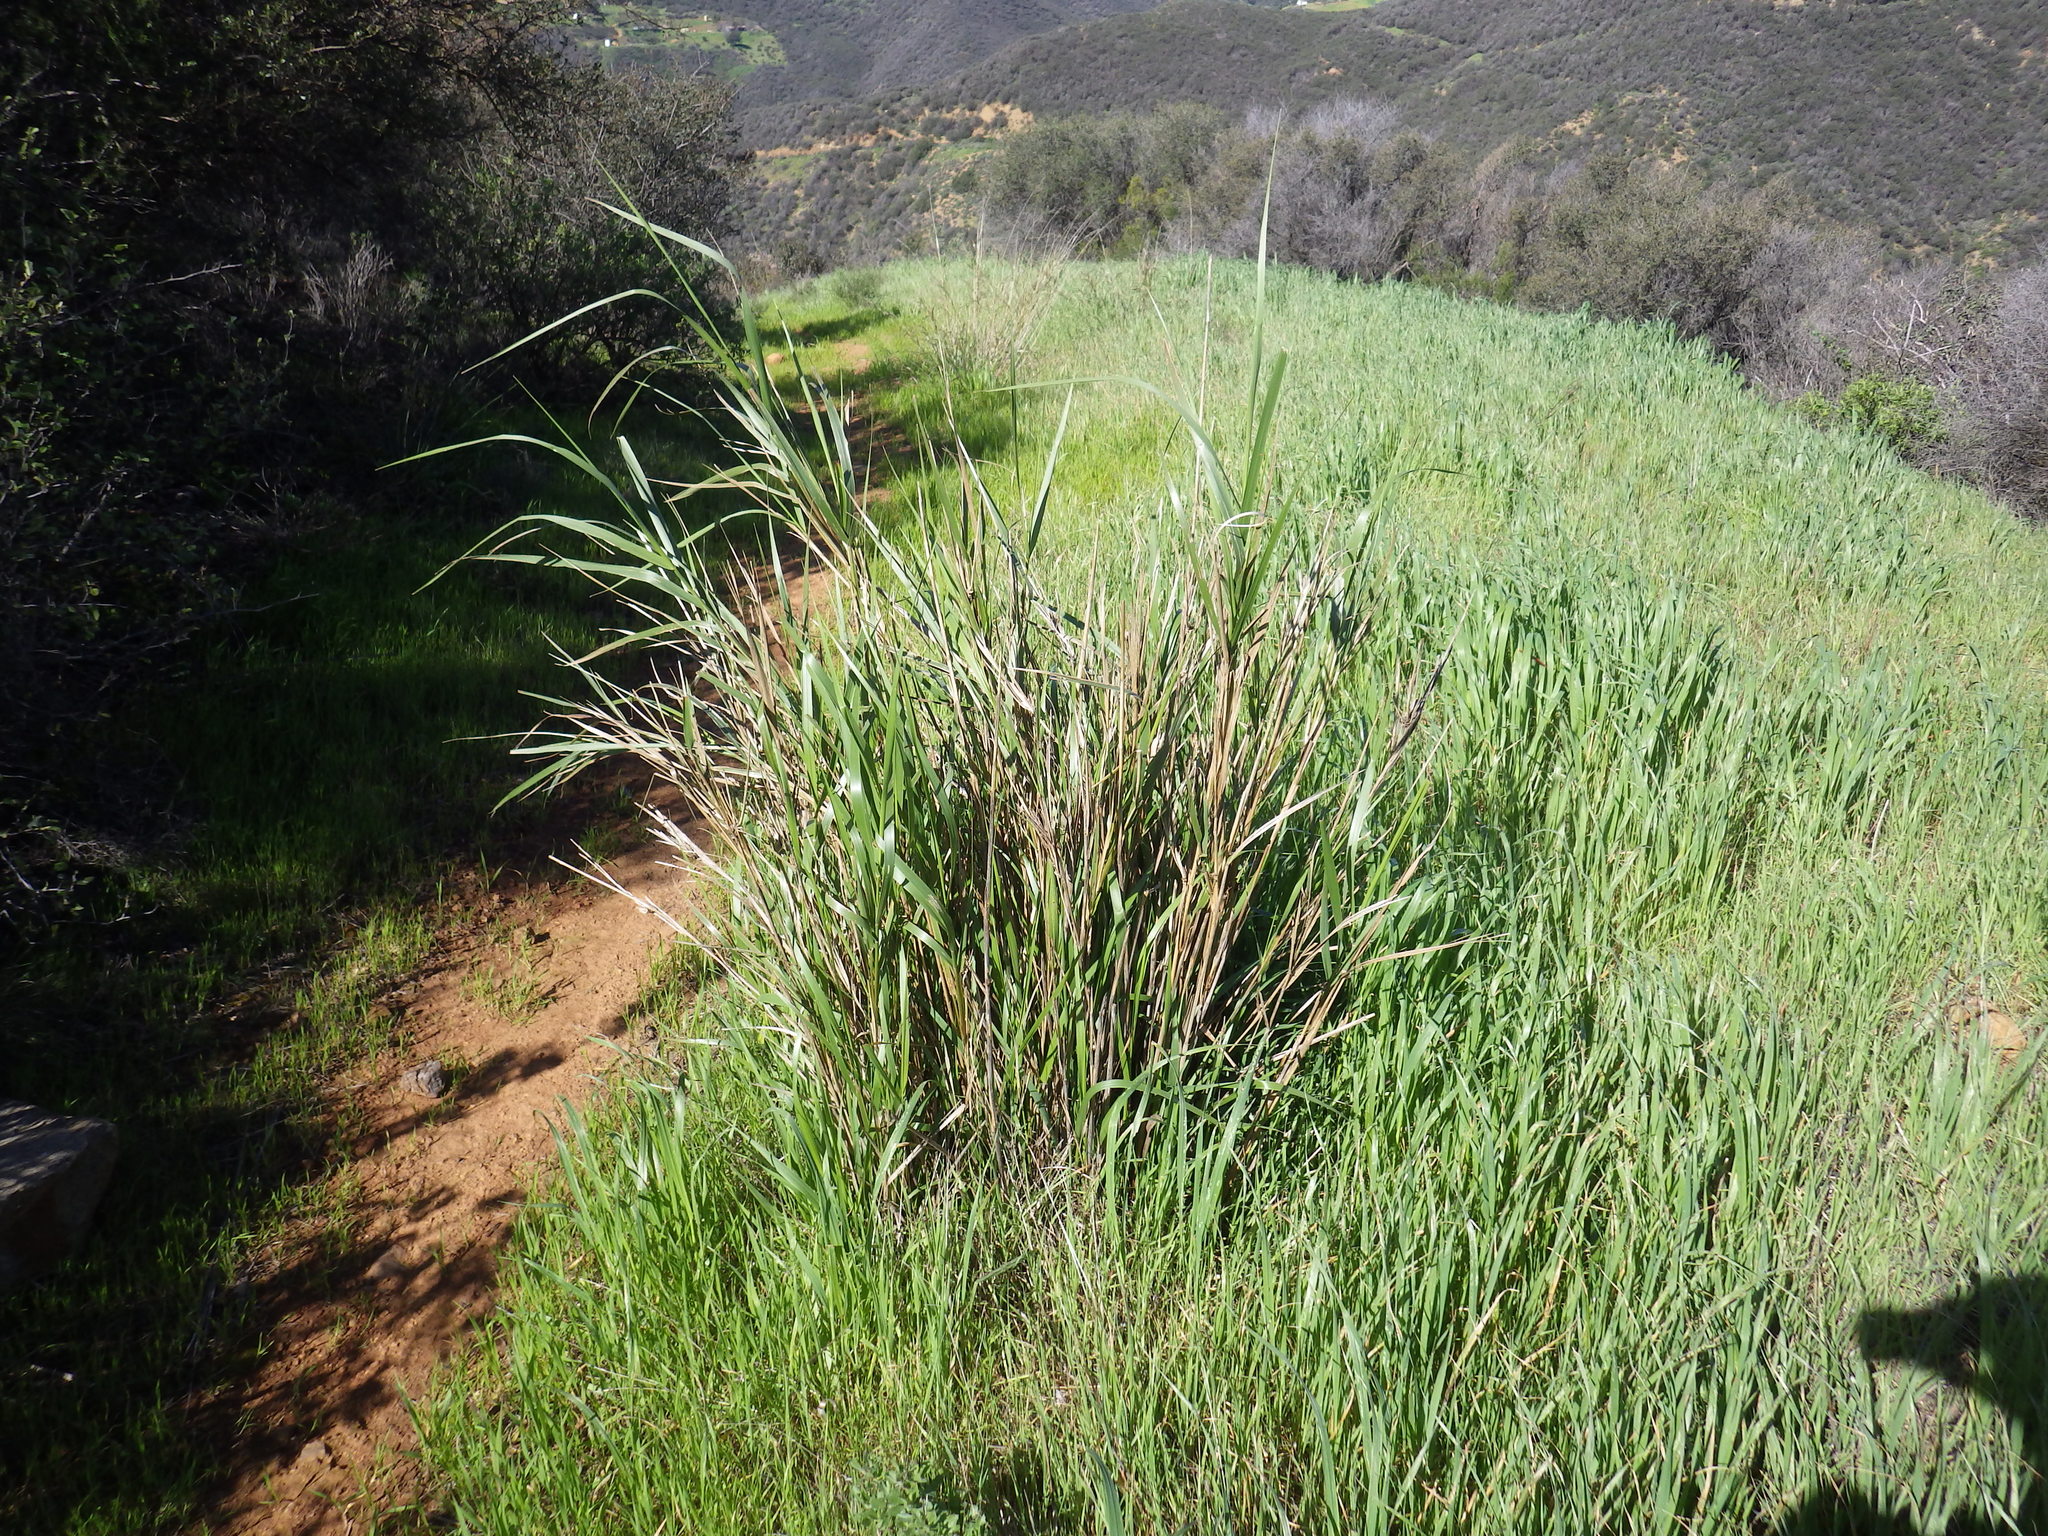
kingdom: Plantae
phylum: Tracheophyta
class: Liliopsida
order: Poales
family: Poaceae
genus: Leymus
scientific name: Leymus condensatus
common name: Giant wild rye
